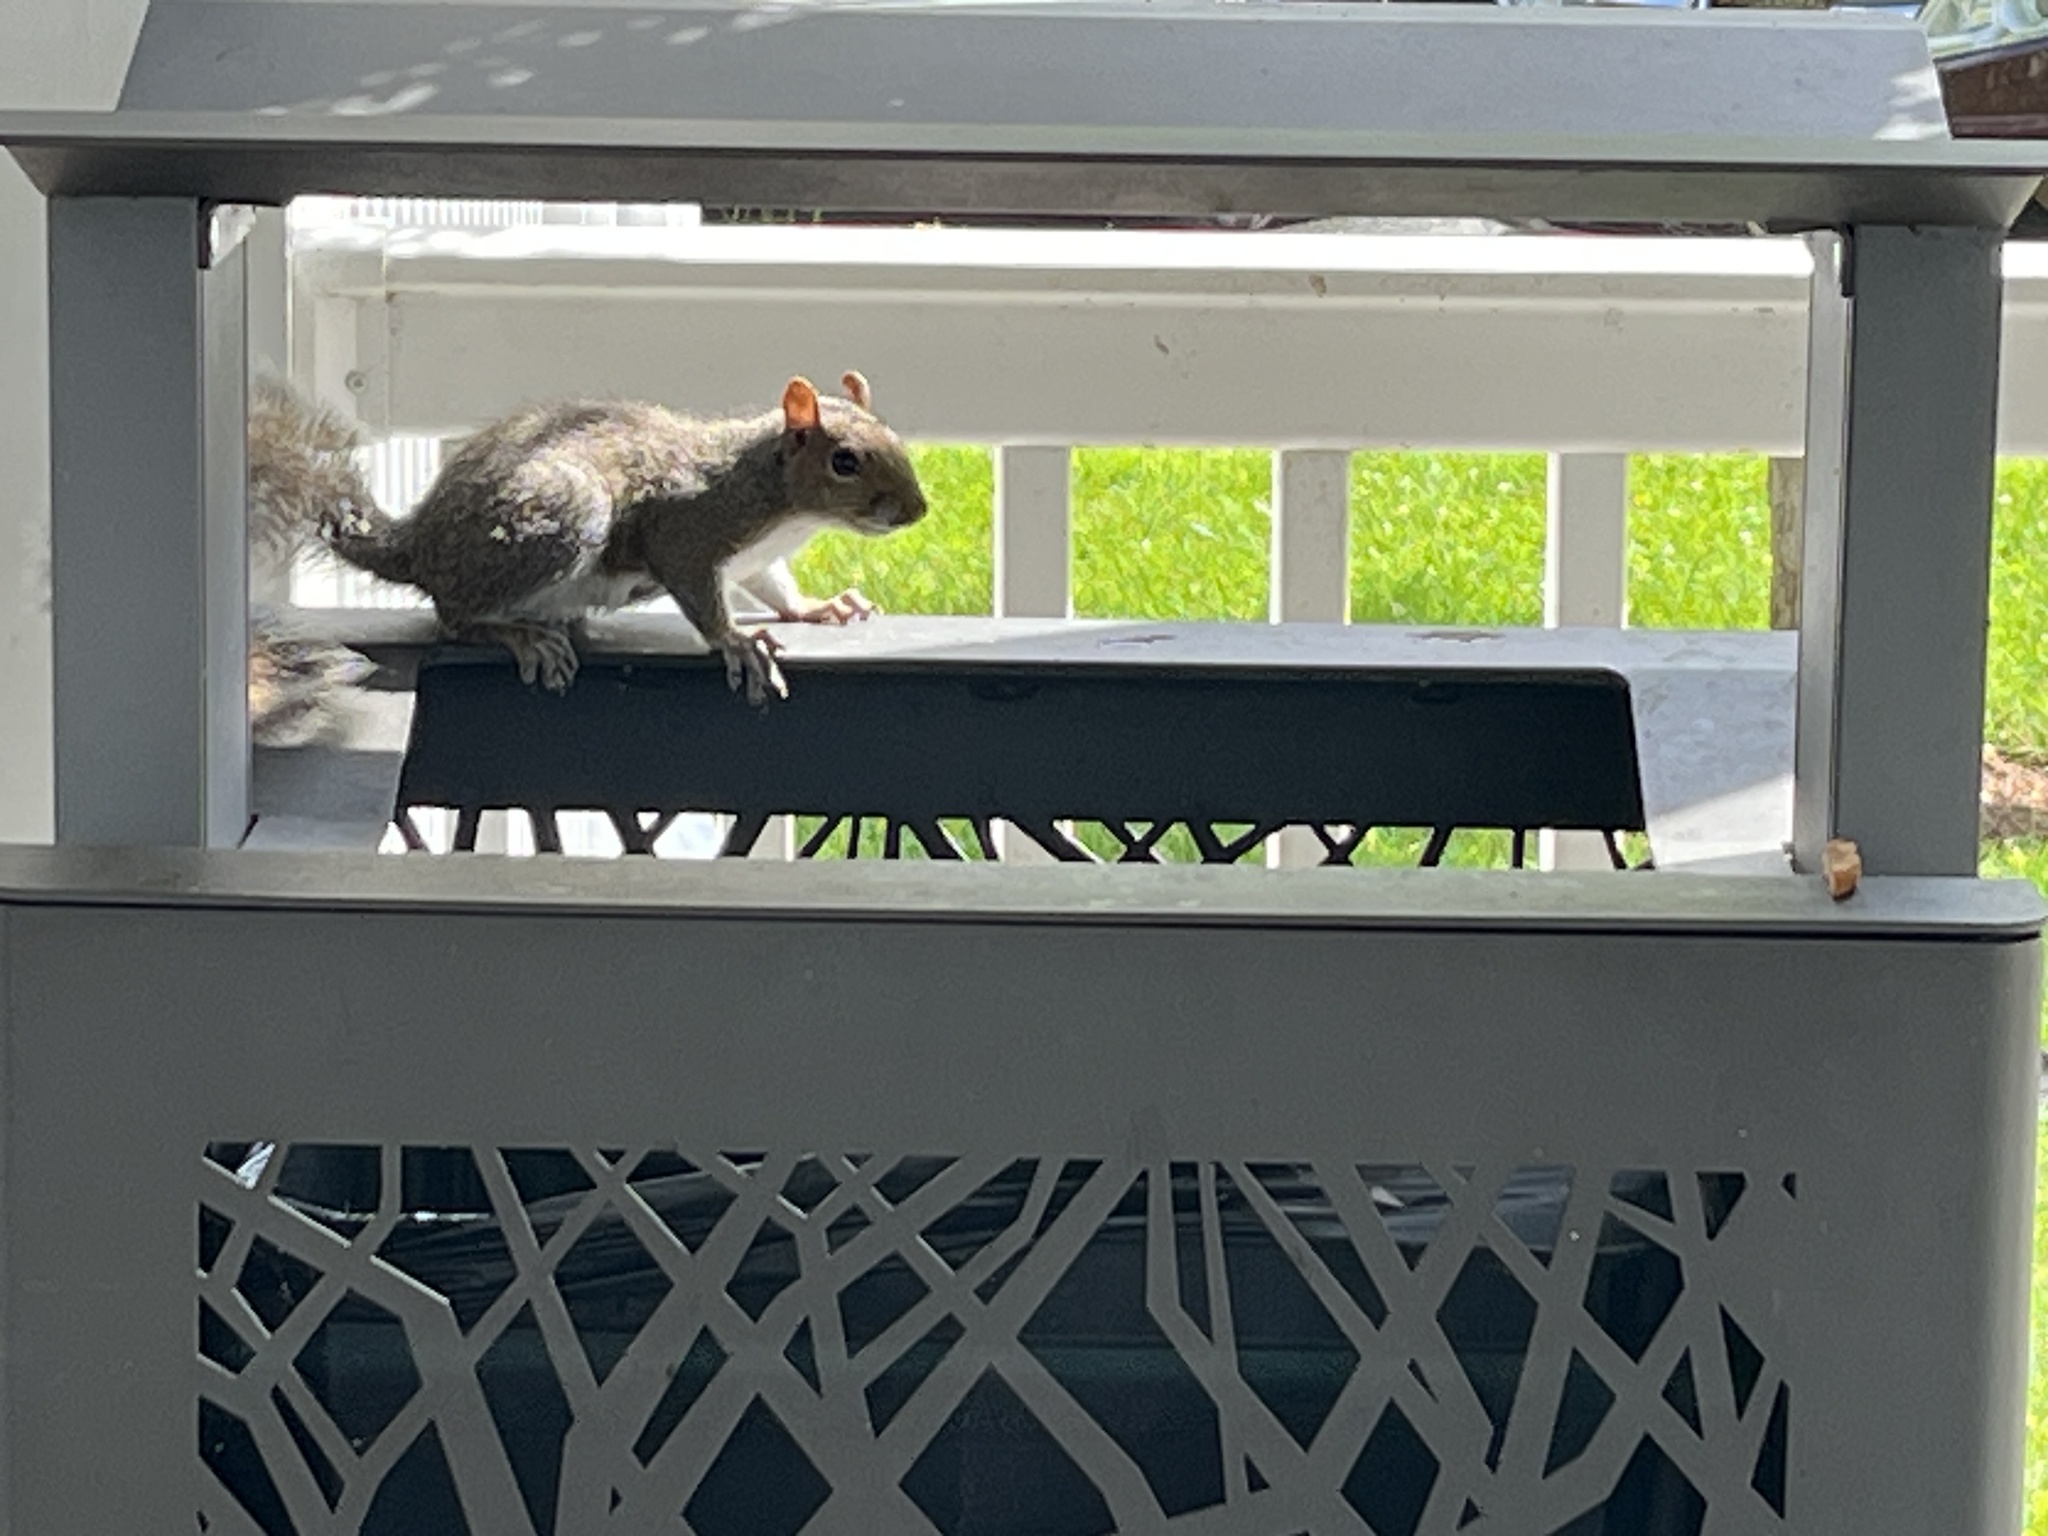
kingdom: Animalia
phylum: Chordata
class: Mammalia
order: Rodentia
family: Sciuridae
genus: Sciurus
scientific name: Sciurus carolinensis
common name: Eastern gray squirrel
